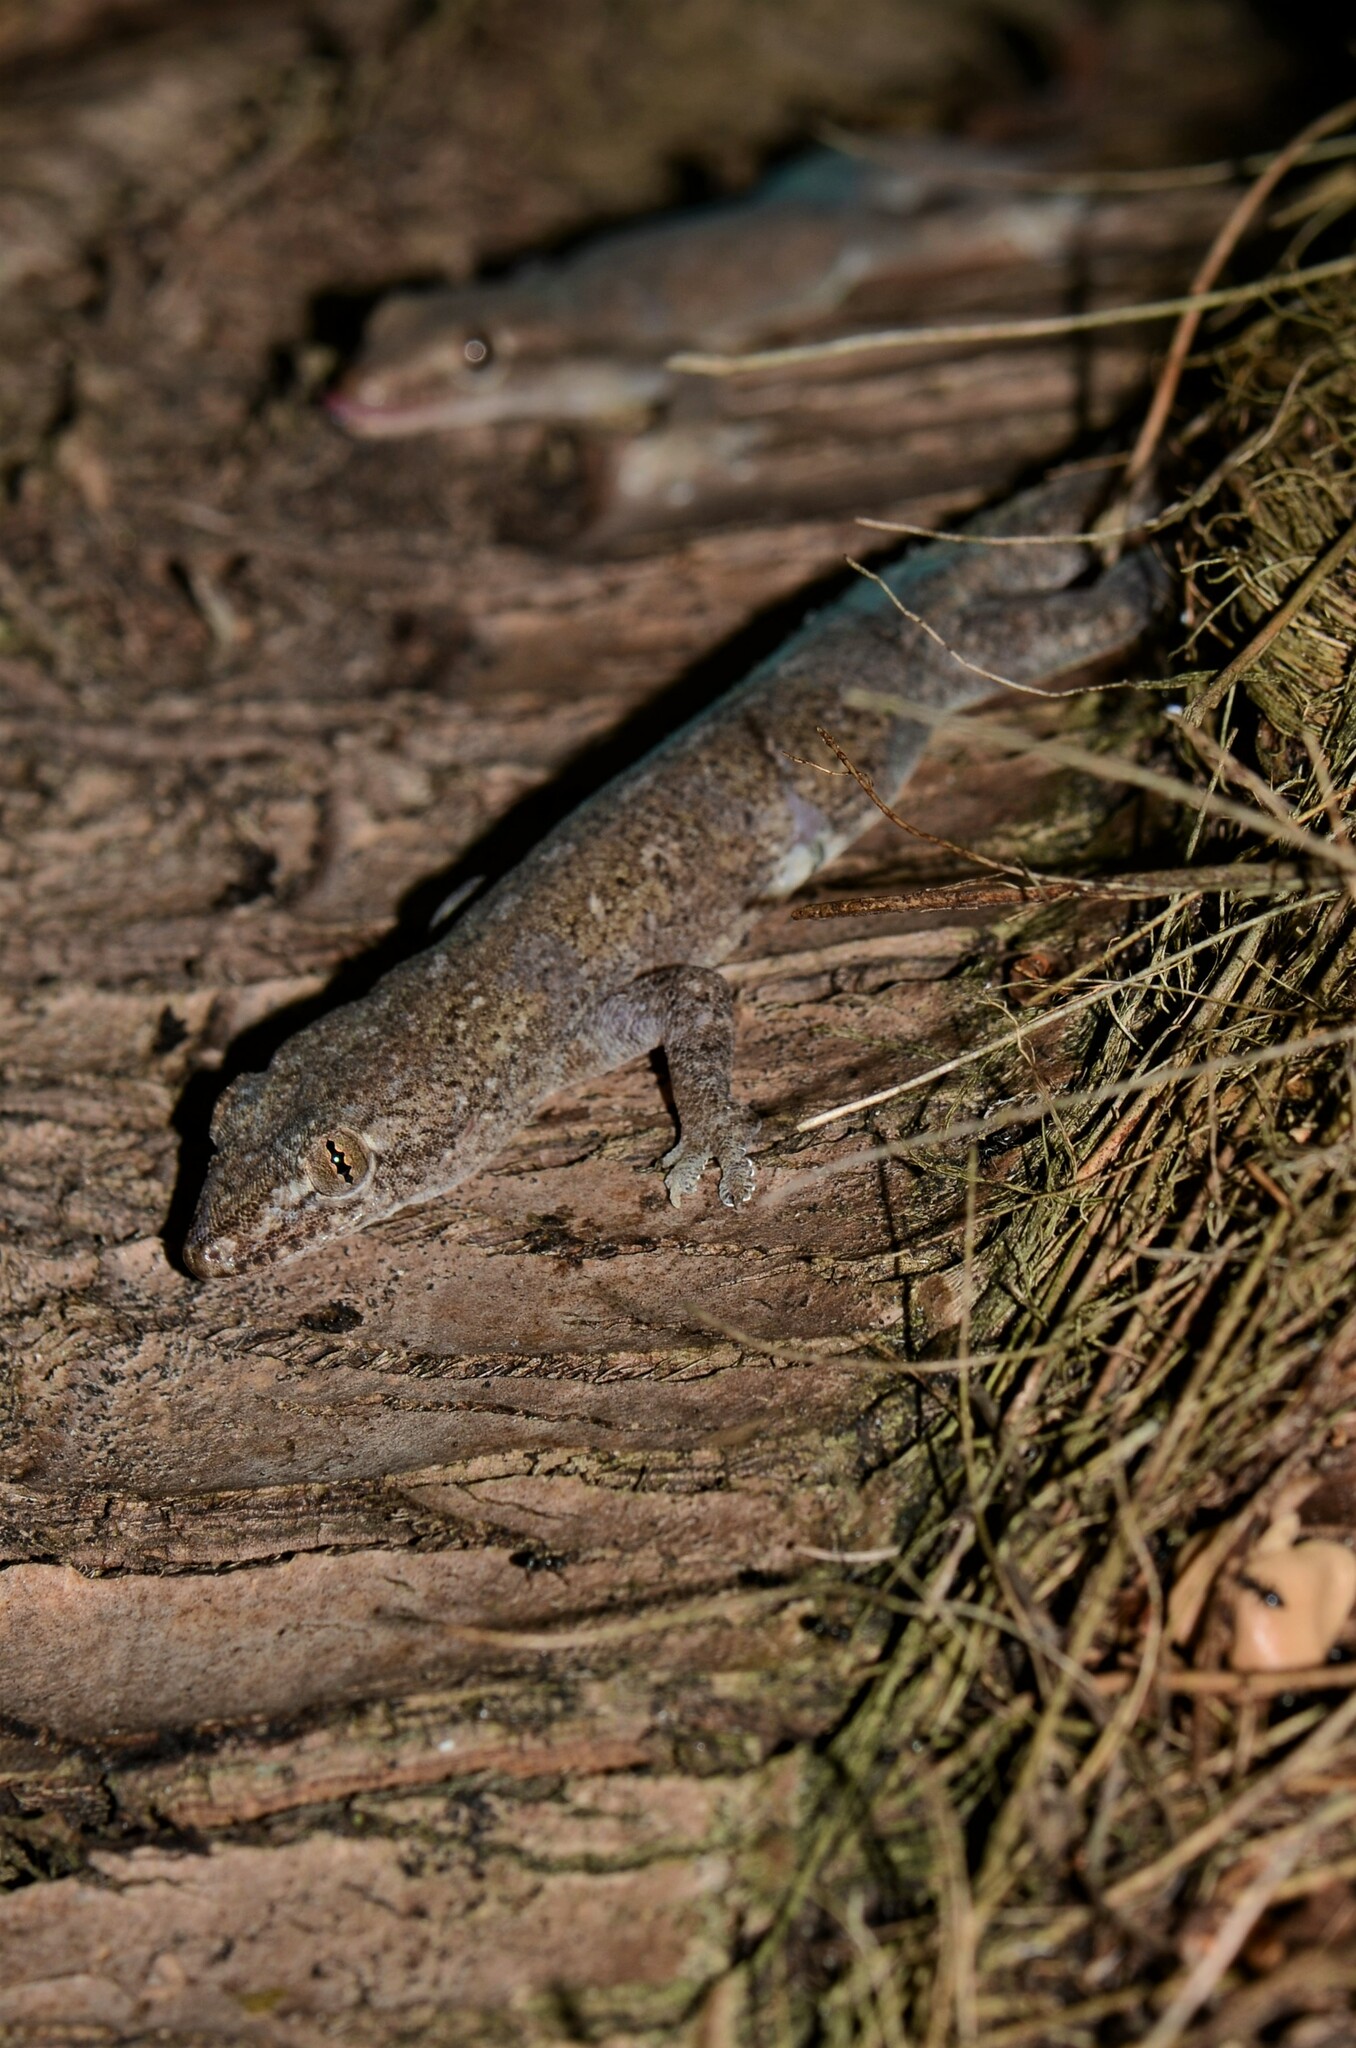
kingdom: Animalia
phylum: Chordata
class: Squamata
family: Gekkonidae
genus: Hemidactylus
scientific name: Hemidactylus frenatus
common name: Common house gecko
